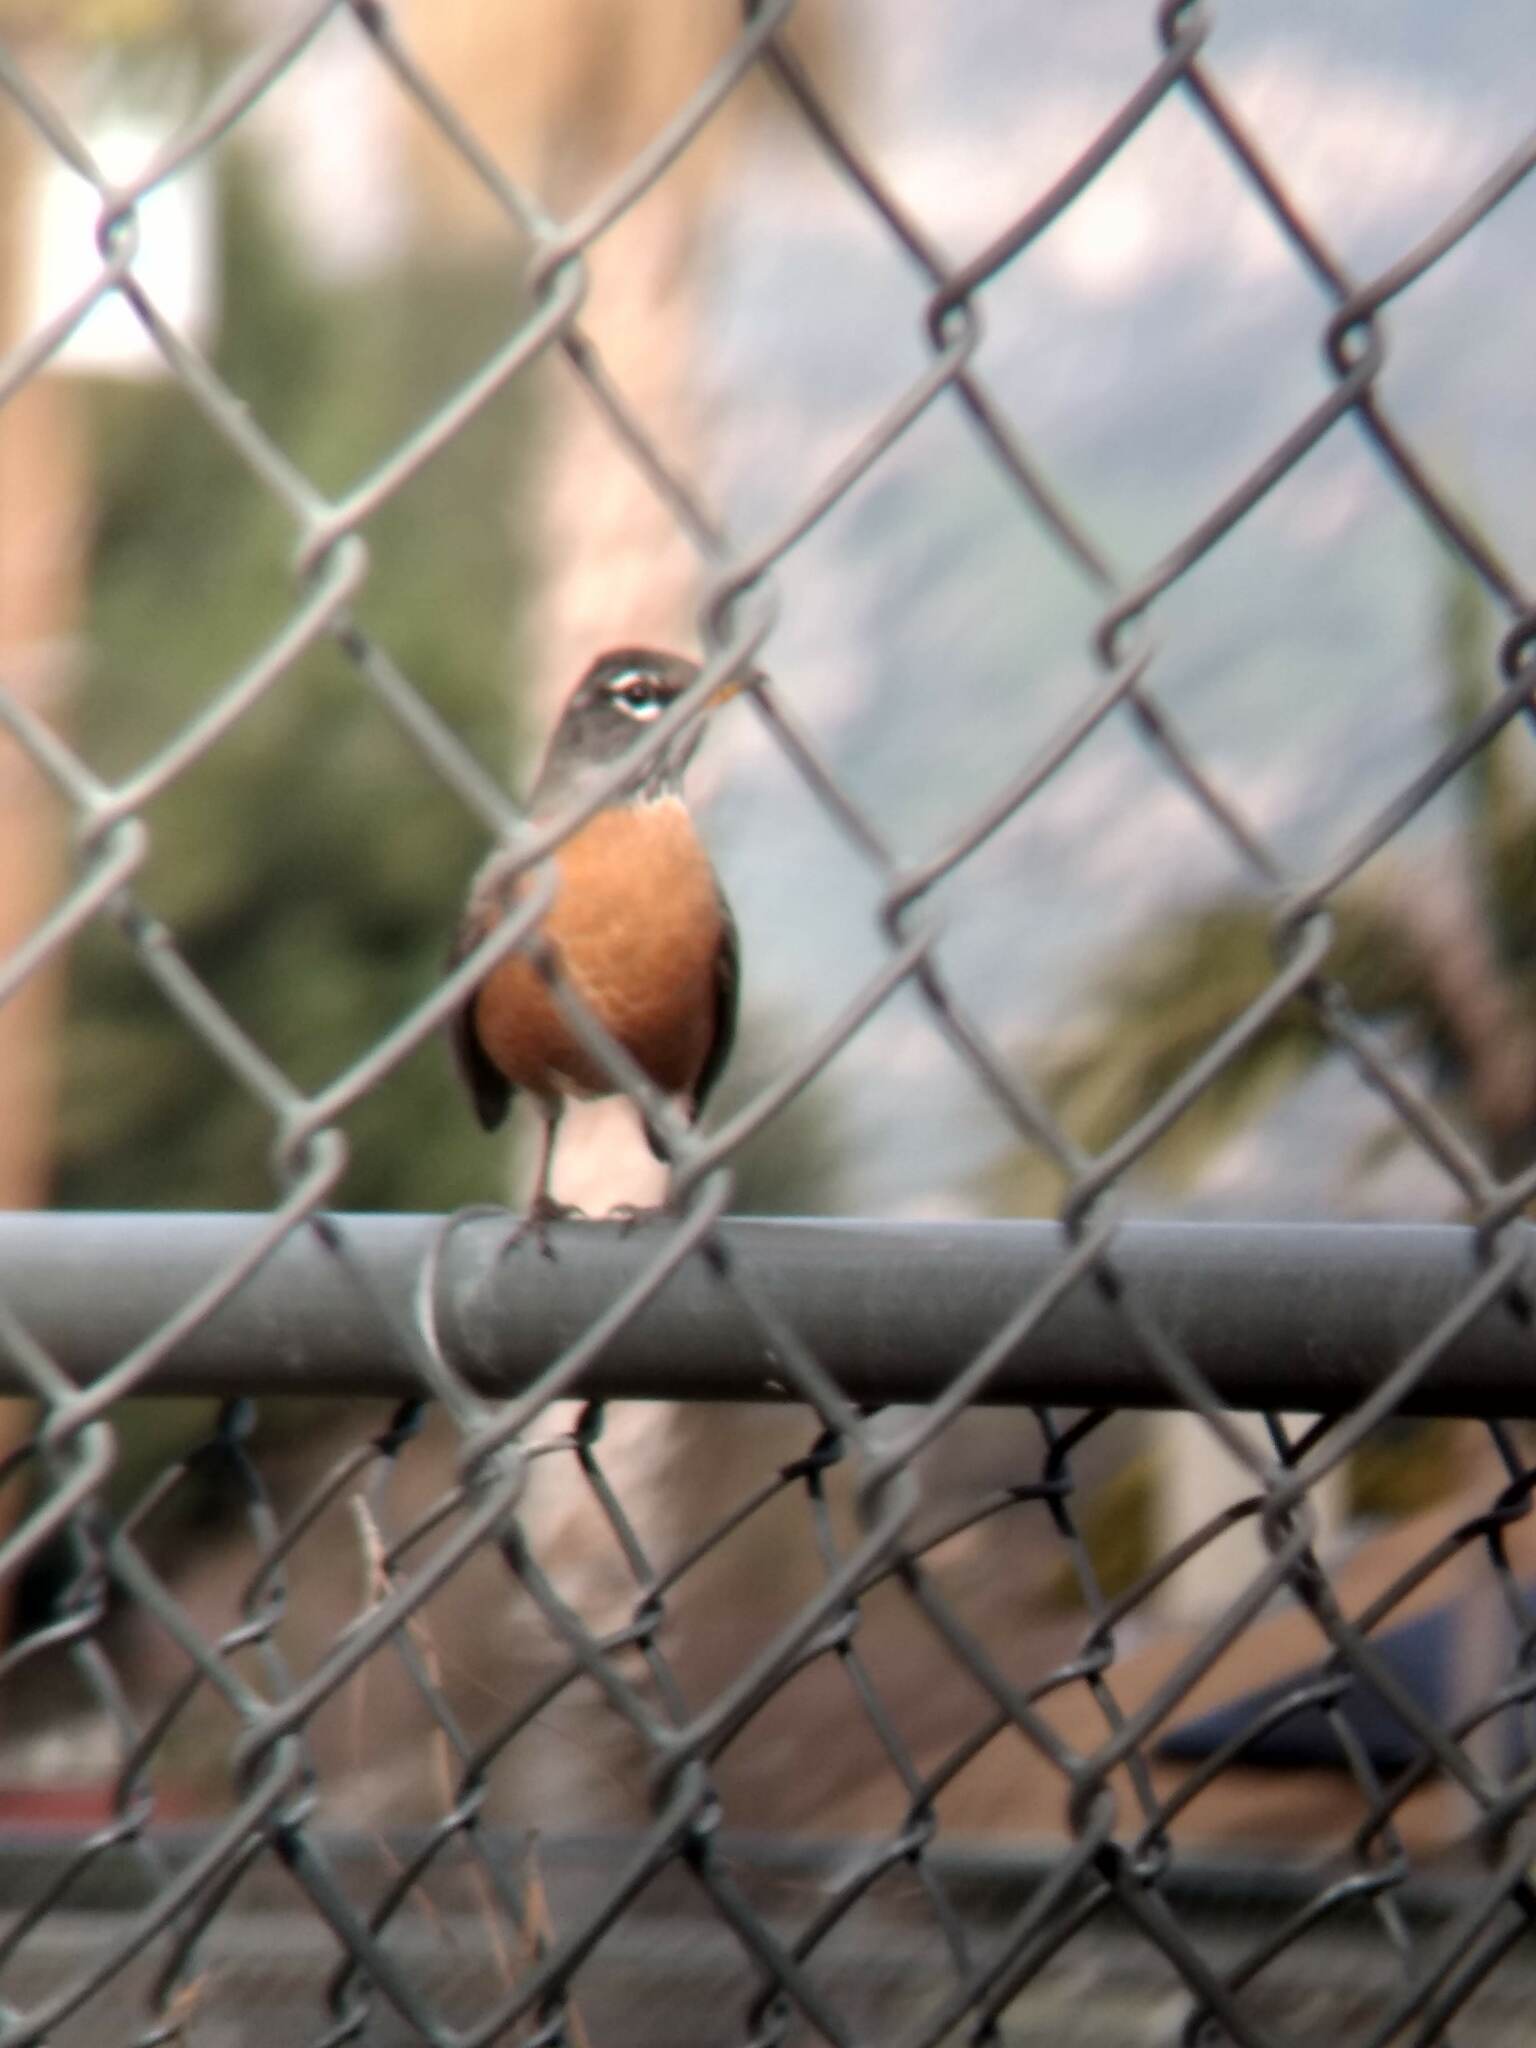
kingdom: Animalia
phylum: Chordata
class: Aves
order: Passeriformes
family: Turdidae
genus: Turdus
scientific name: Turdus migratorius
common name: American robin
